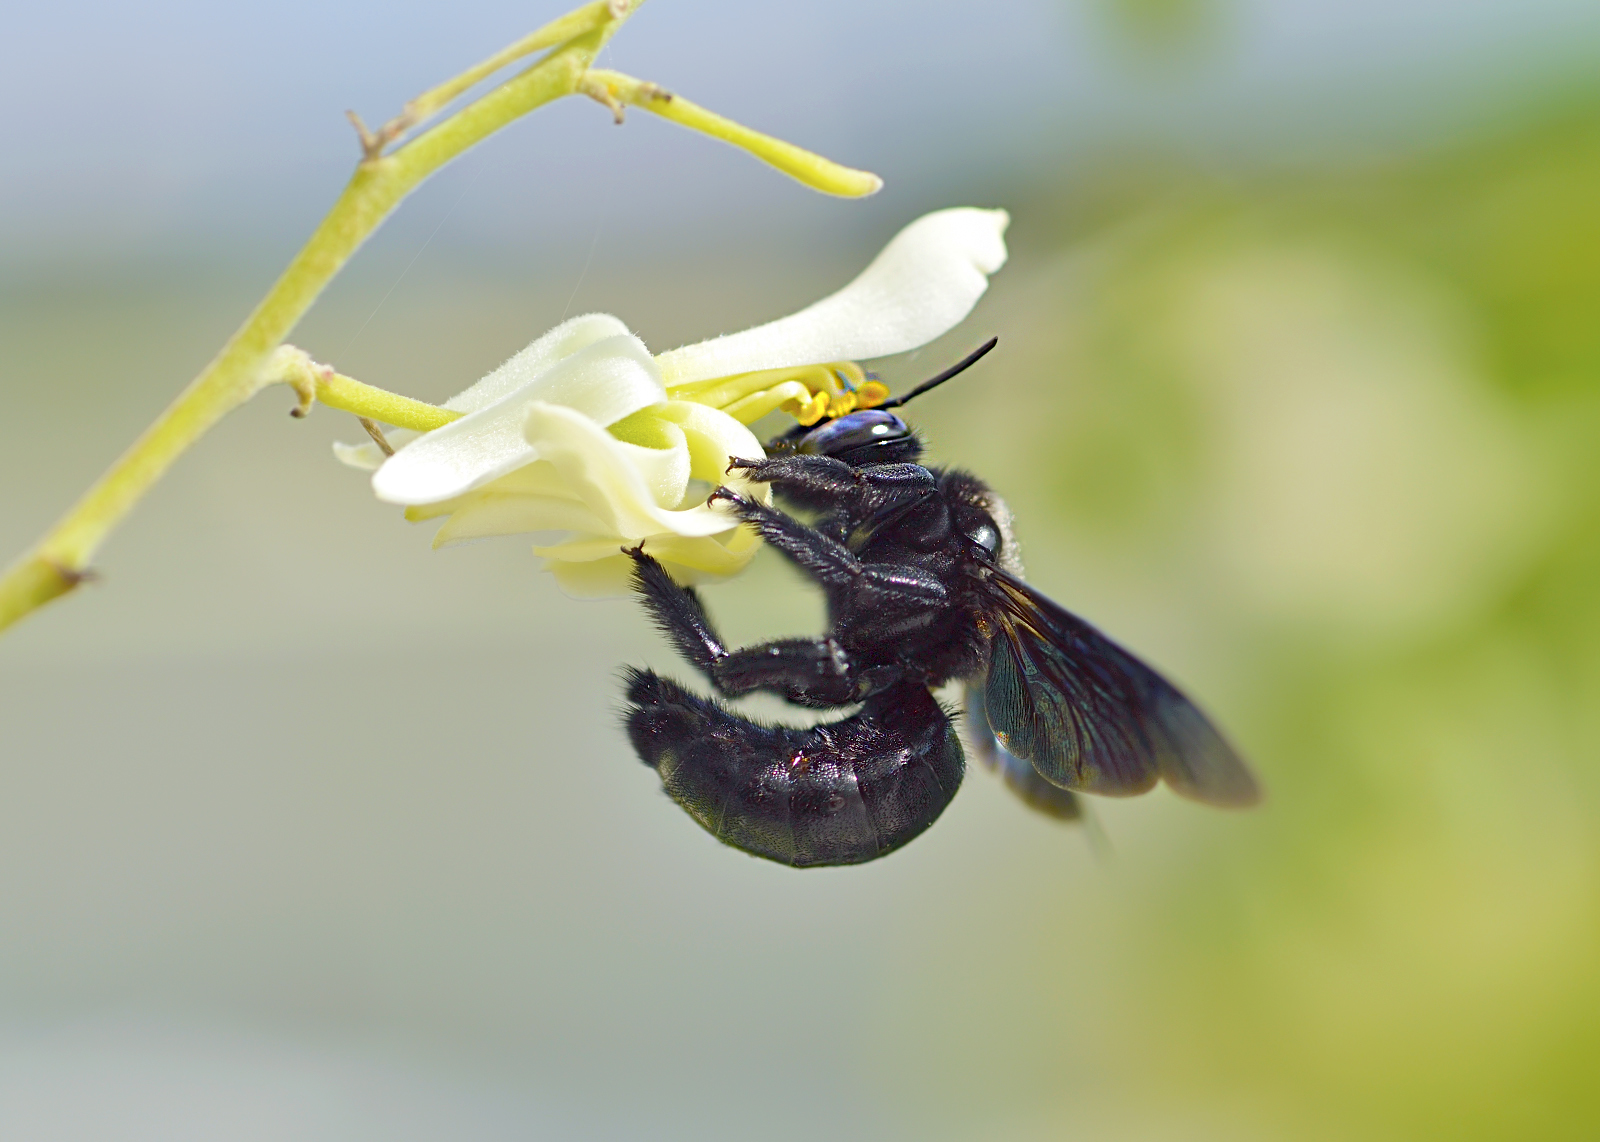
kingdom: Animalia
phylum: Arthropoda
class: Insecta
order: Hymenoptera
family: Apidae
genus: Xylocopa
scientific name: Xylocopa fenestrata
